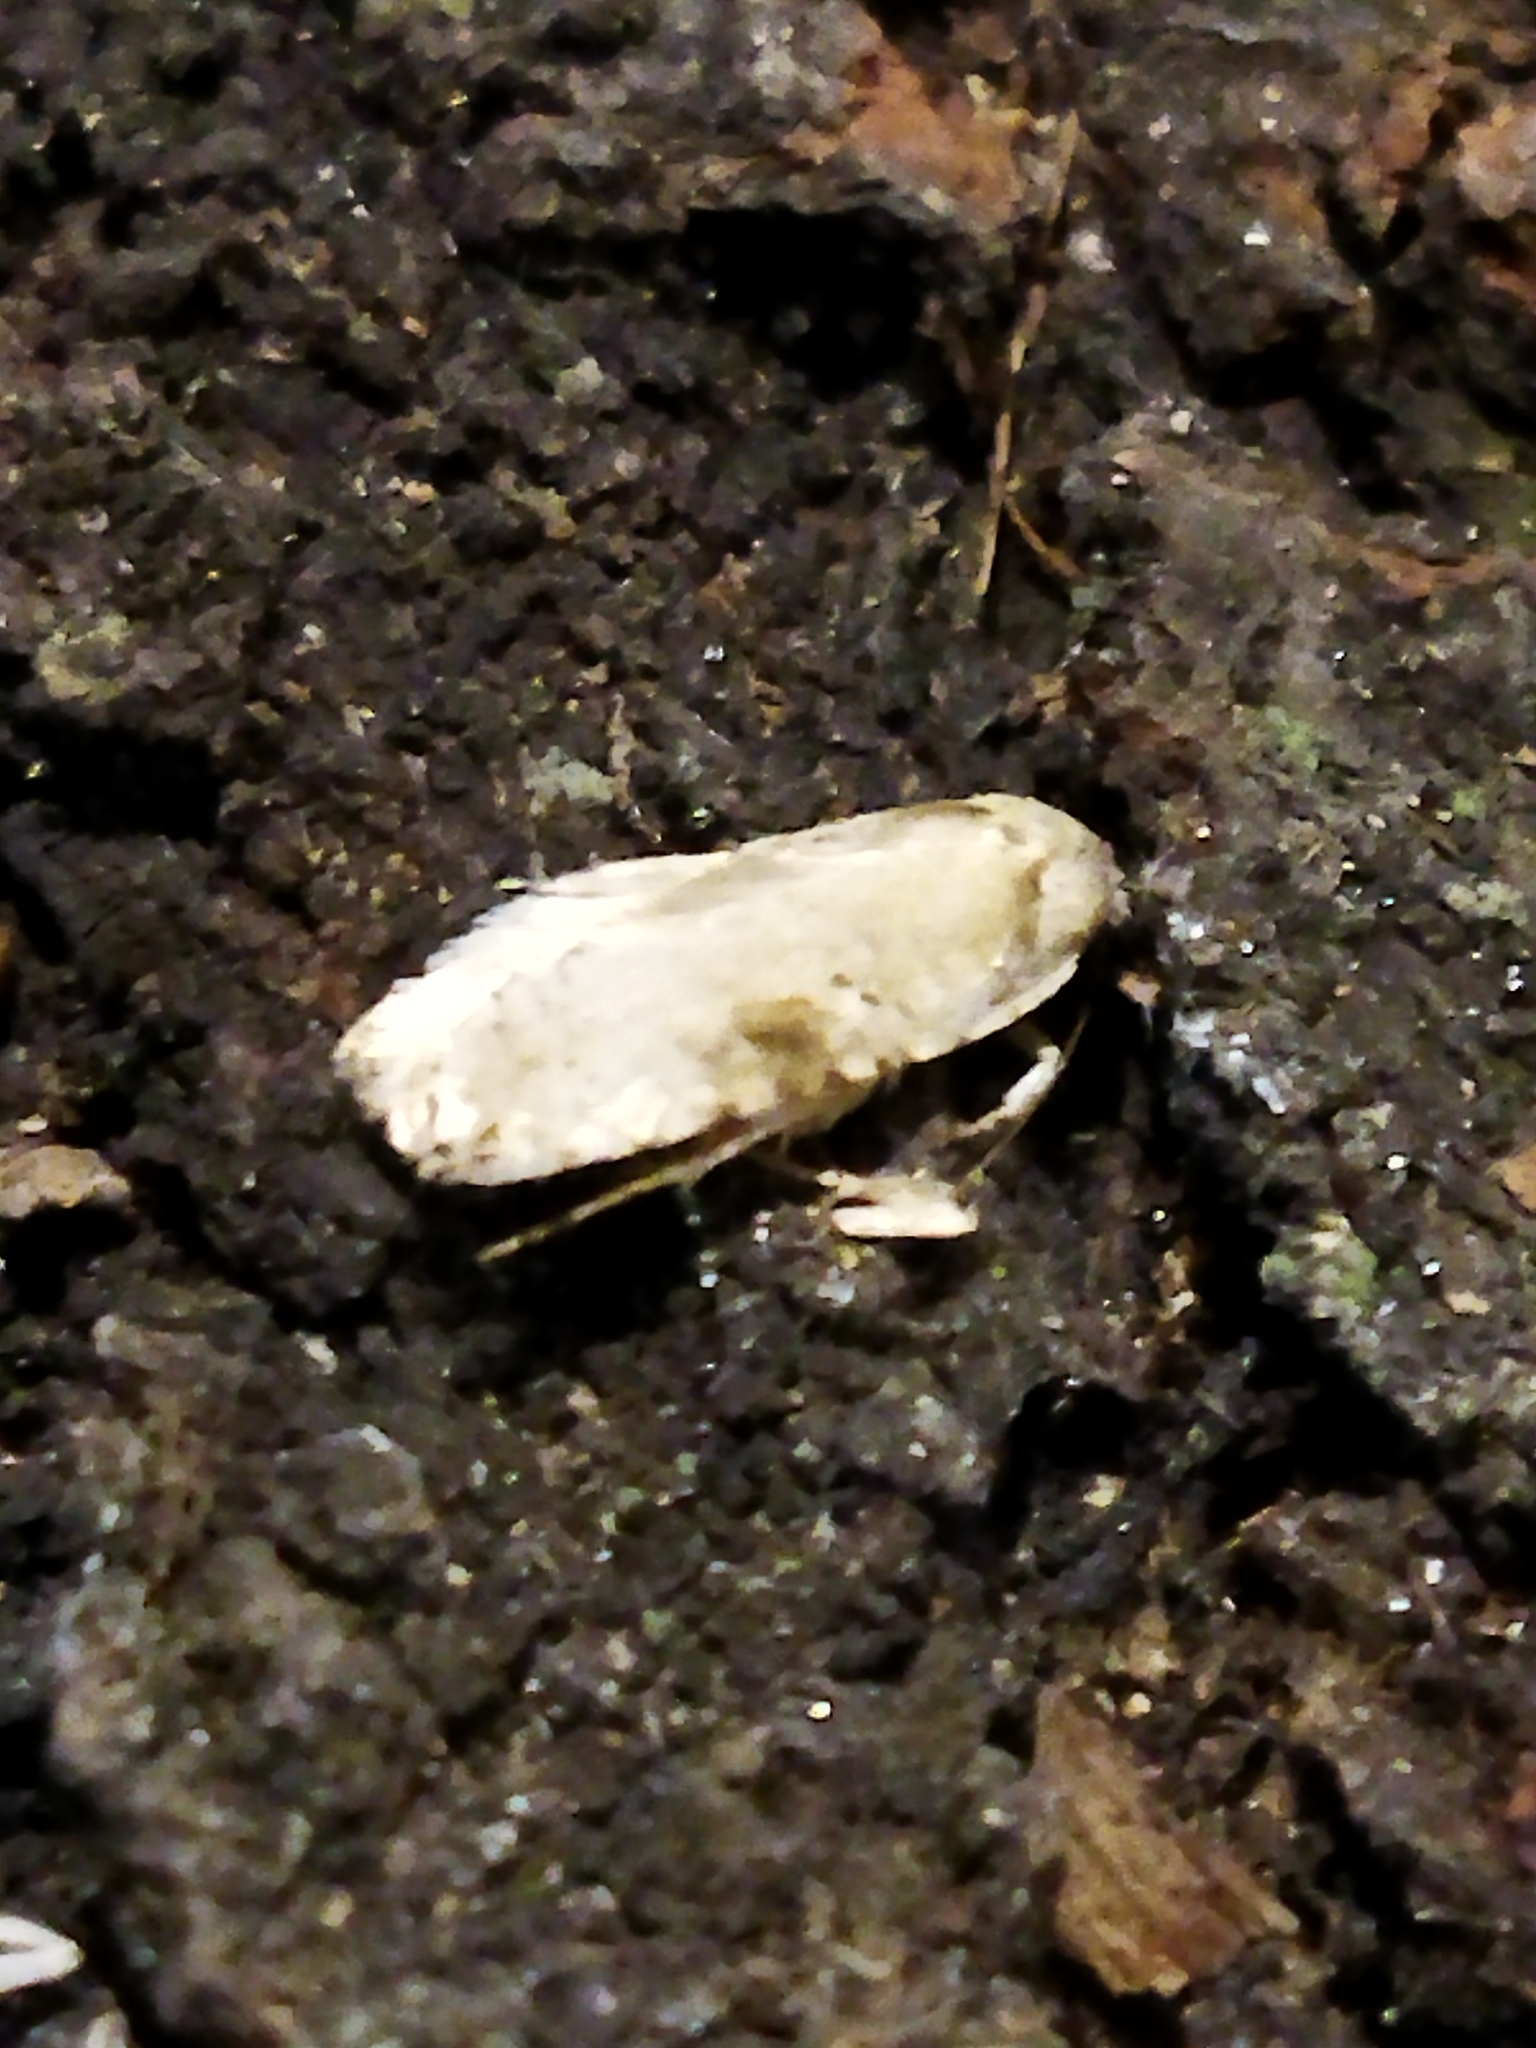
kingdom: Animalia
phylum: Arthropoda
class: Insecta
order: Lepidoptera
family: Depressariidae
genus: Agonopterix
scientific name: Agonopterix alstroemeriana
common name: Moth
